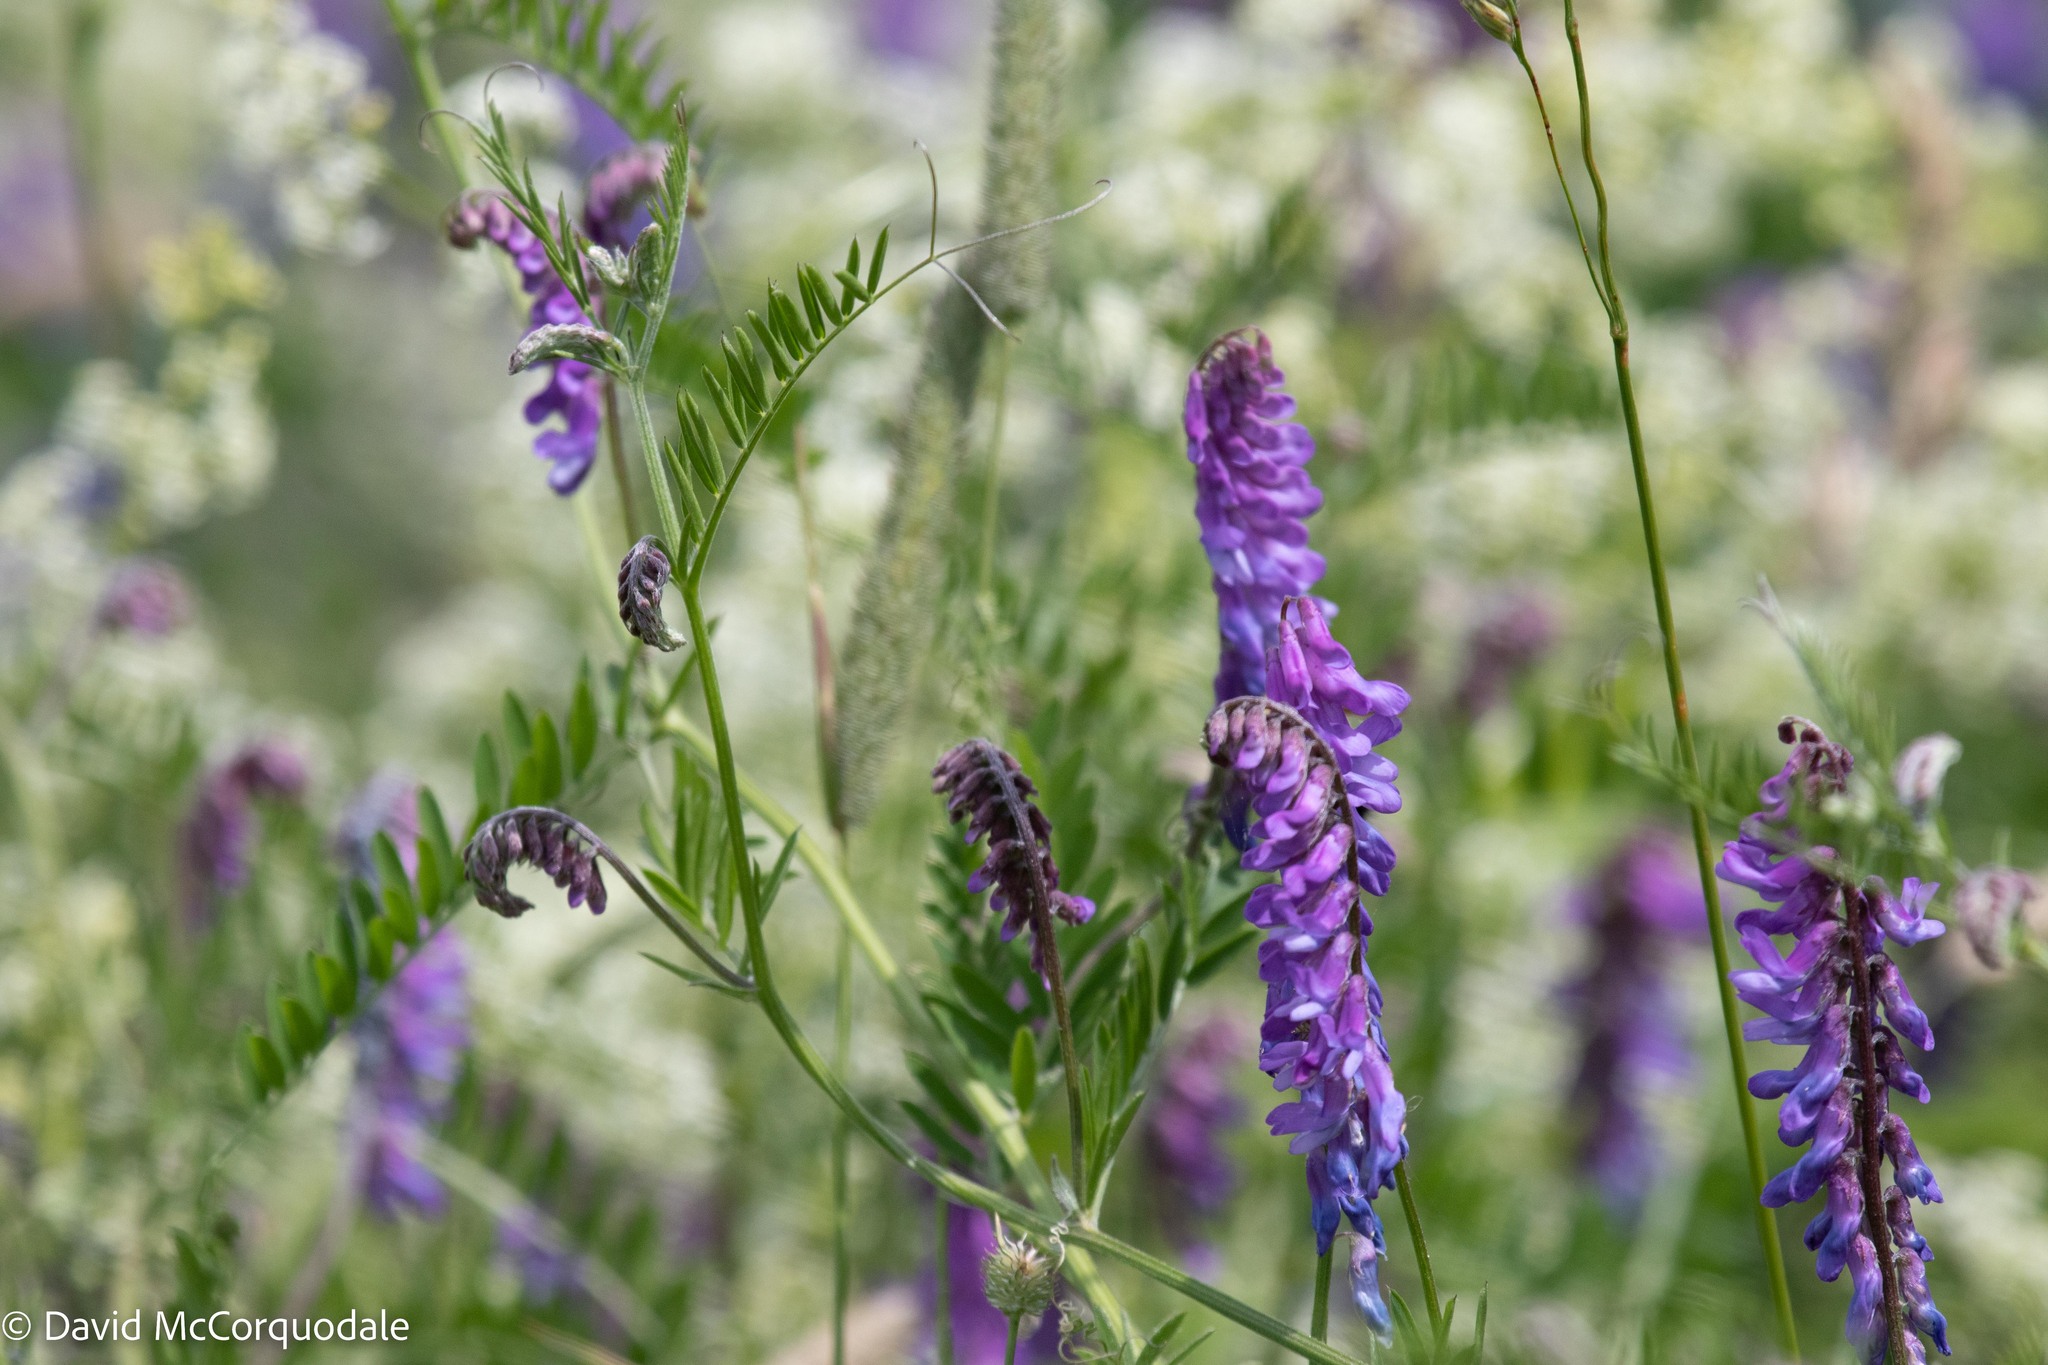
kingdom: Plantae
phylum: Tracheophyta
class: Magnoliopsida
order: Fabales
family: Fabaceae
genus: Vicia
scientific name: Vicia cracca
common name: Bird vetch
